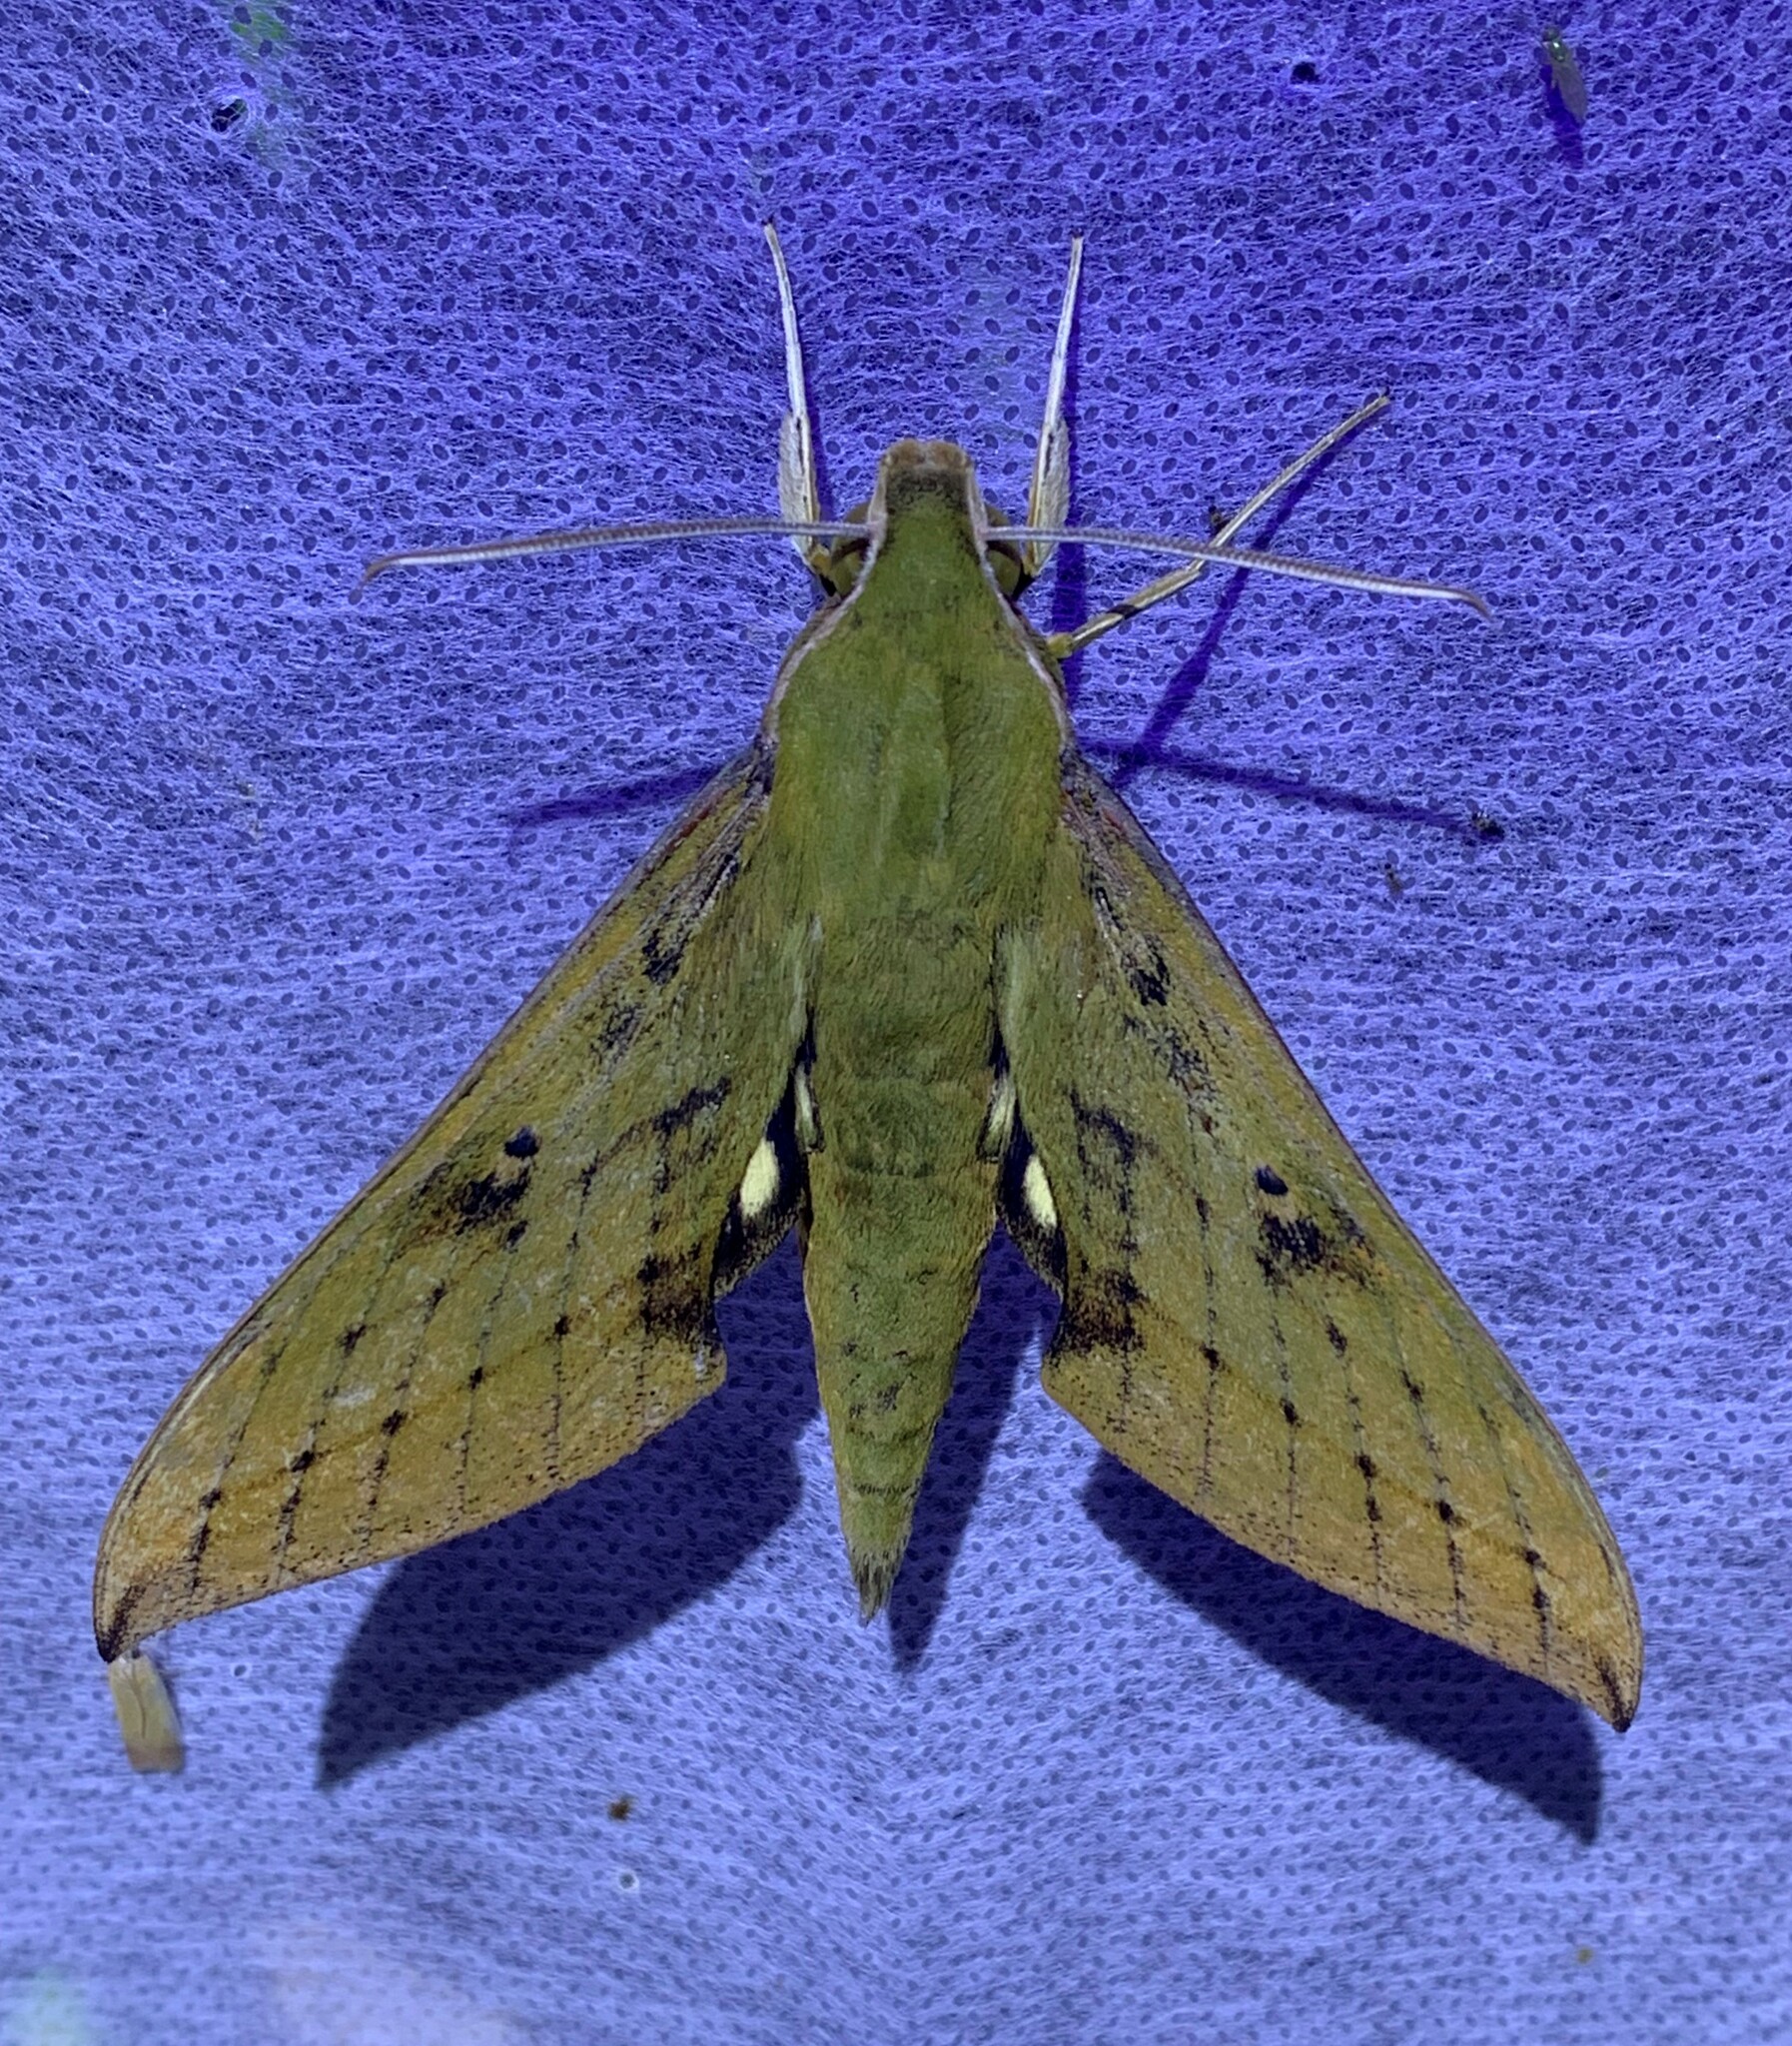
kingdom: Animalia
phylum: Arthropoda
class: Insecta
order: Lepidoptera
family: Sphingidae
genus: Xylophanes
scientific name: Xylophanes colombiana
